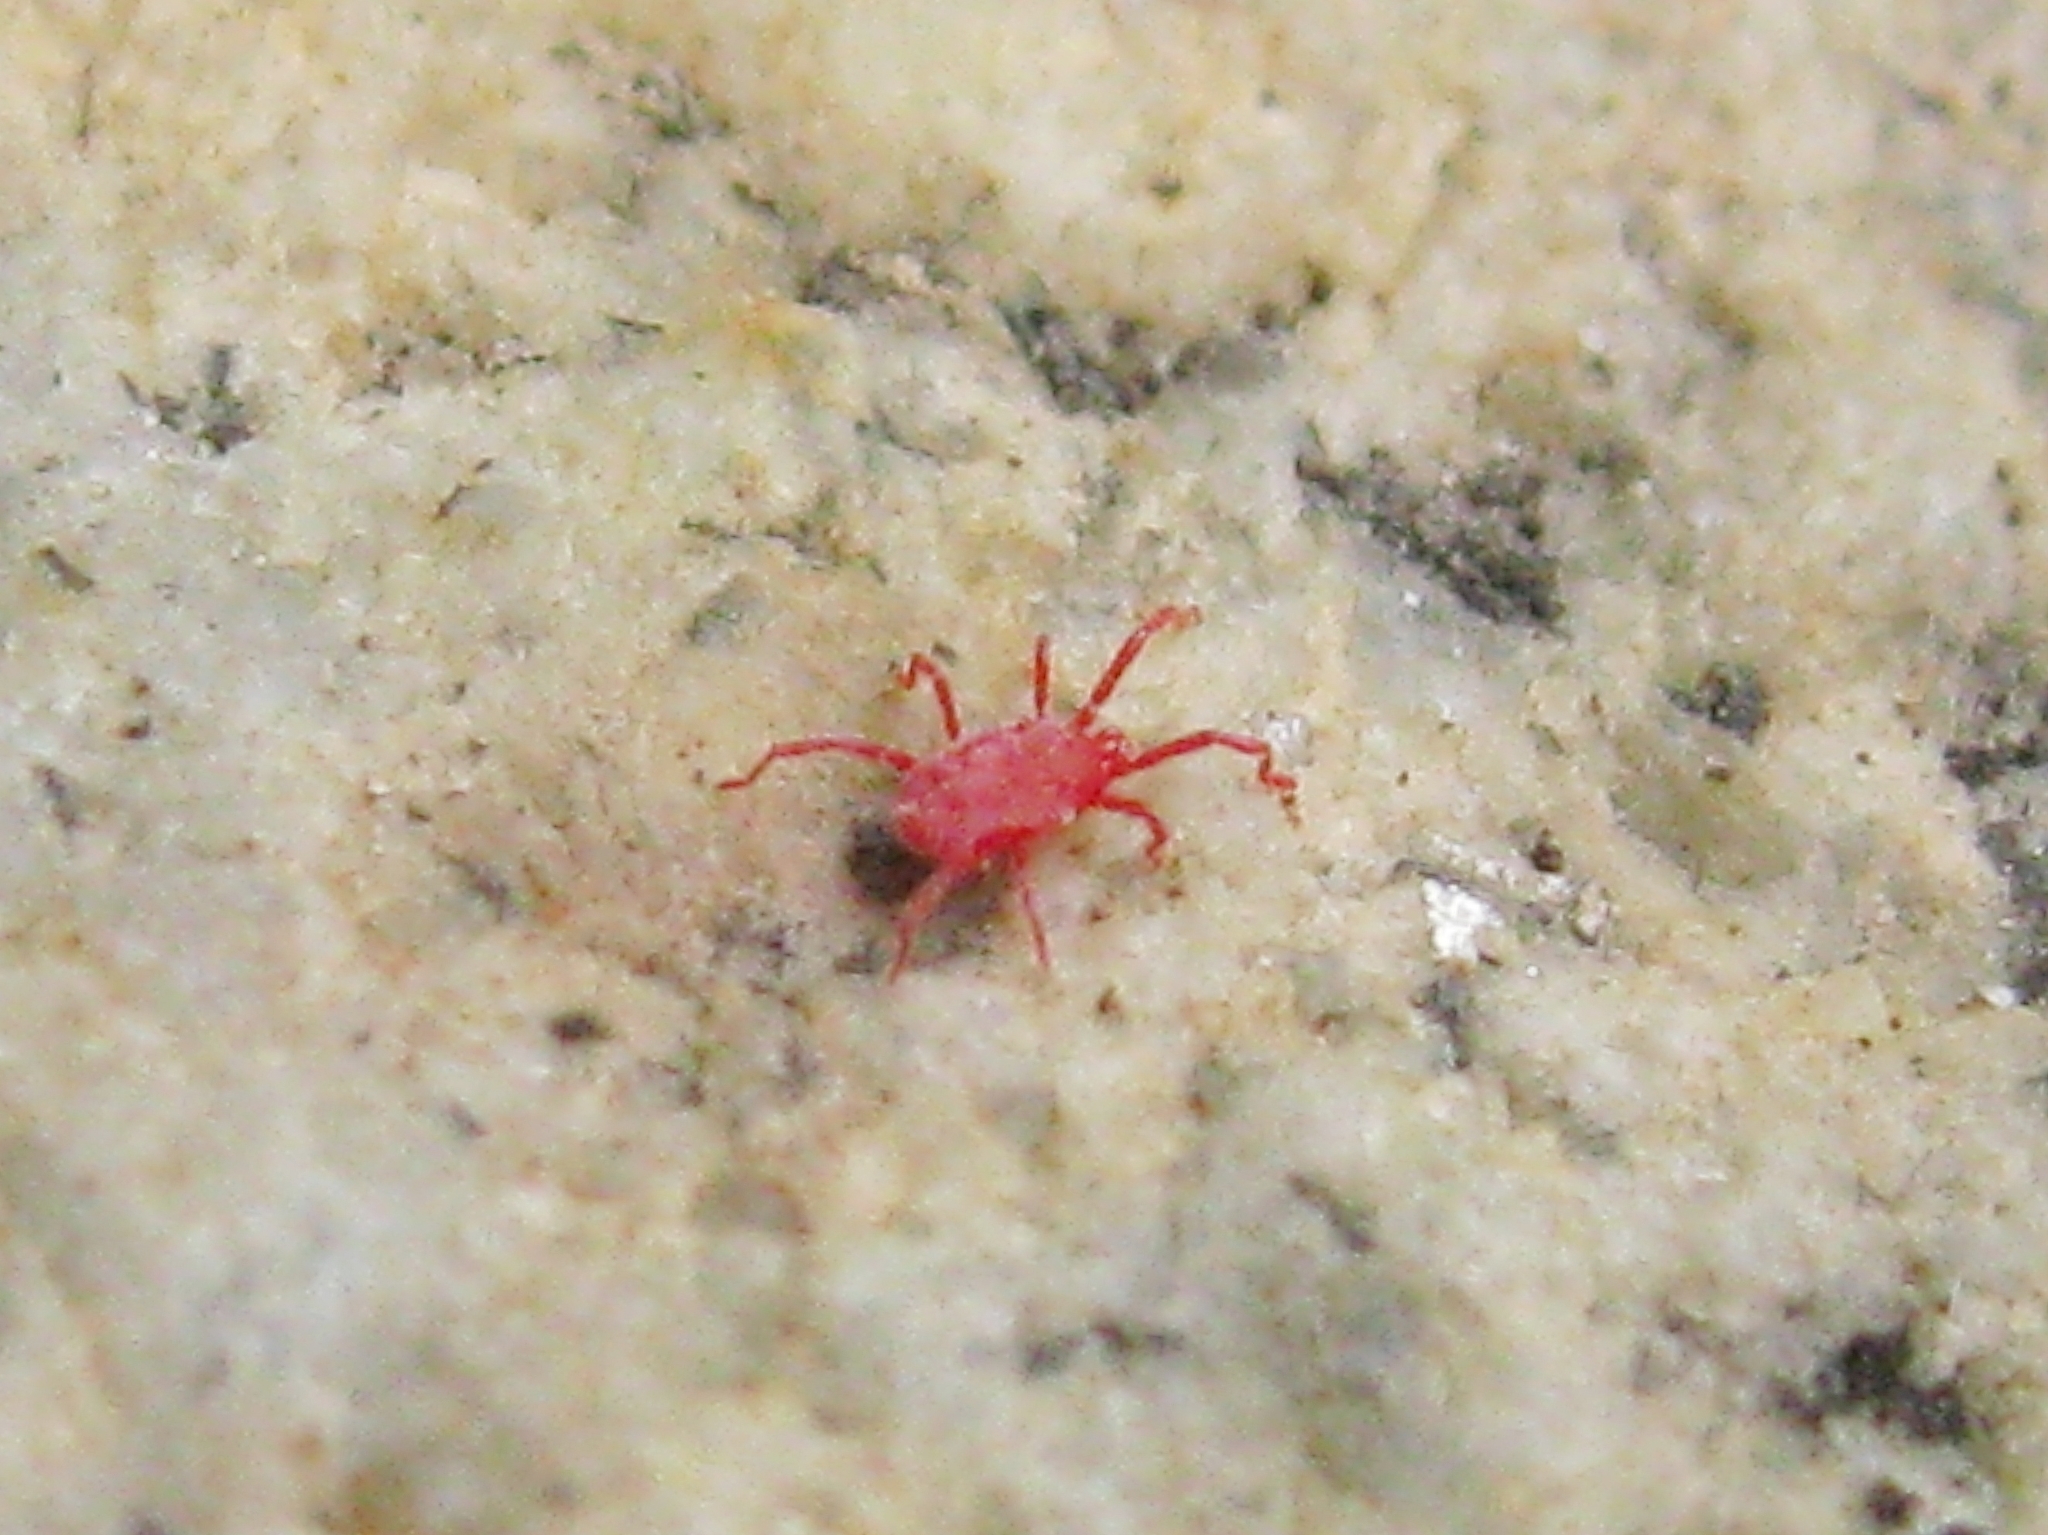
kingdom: Animalia
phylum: Arthropoda
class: Arachnida
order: Trombidiformes
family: Erythraeidae
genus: Balaustium
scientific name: Balaustium
